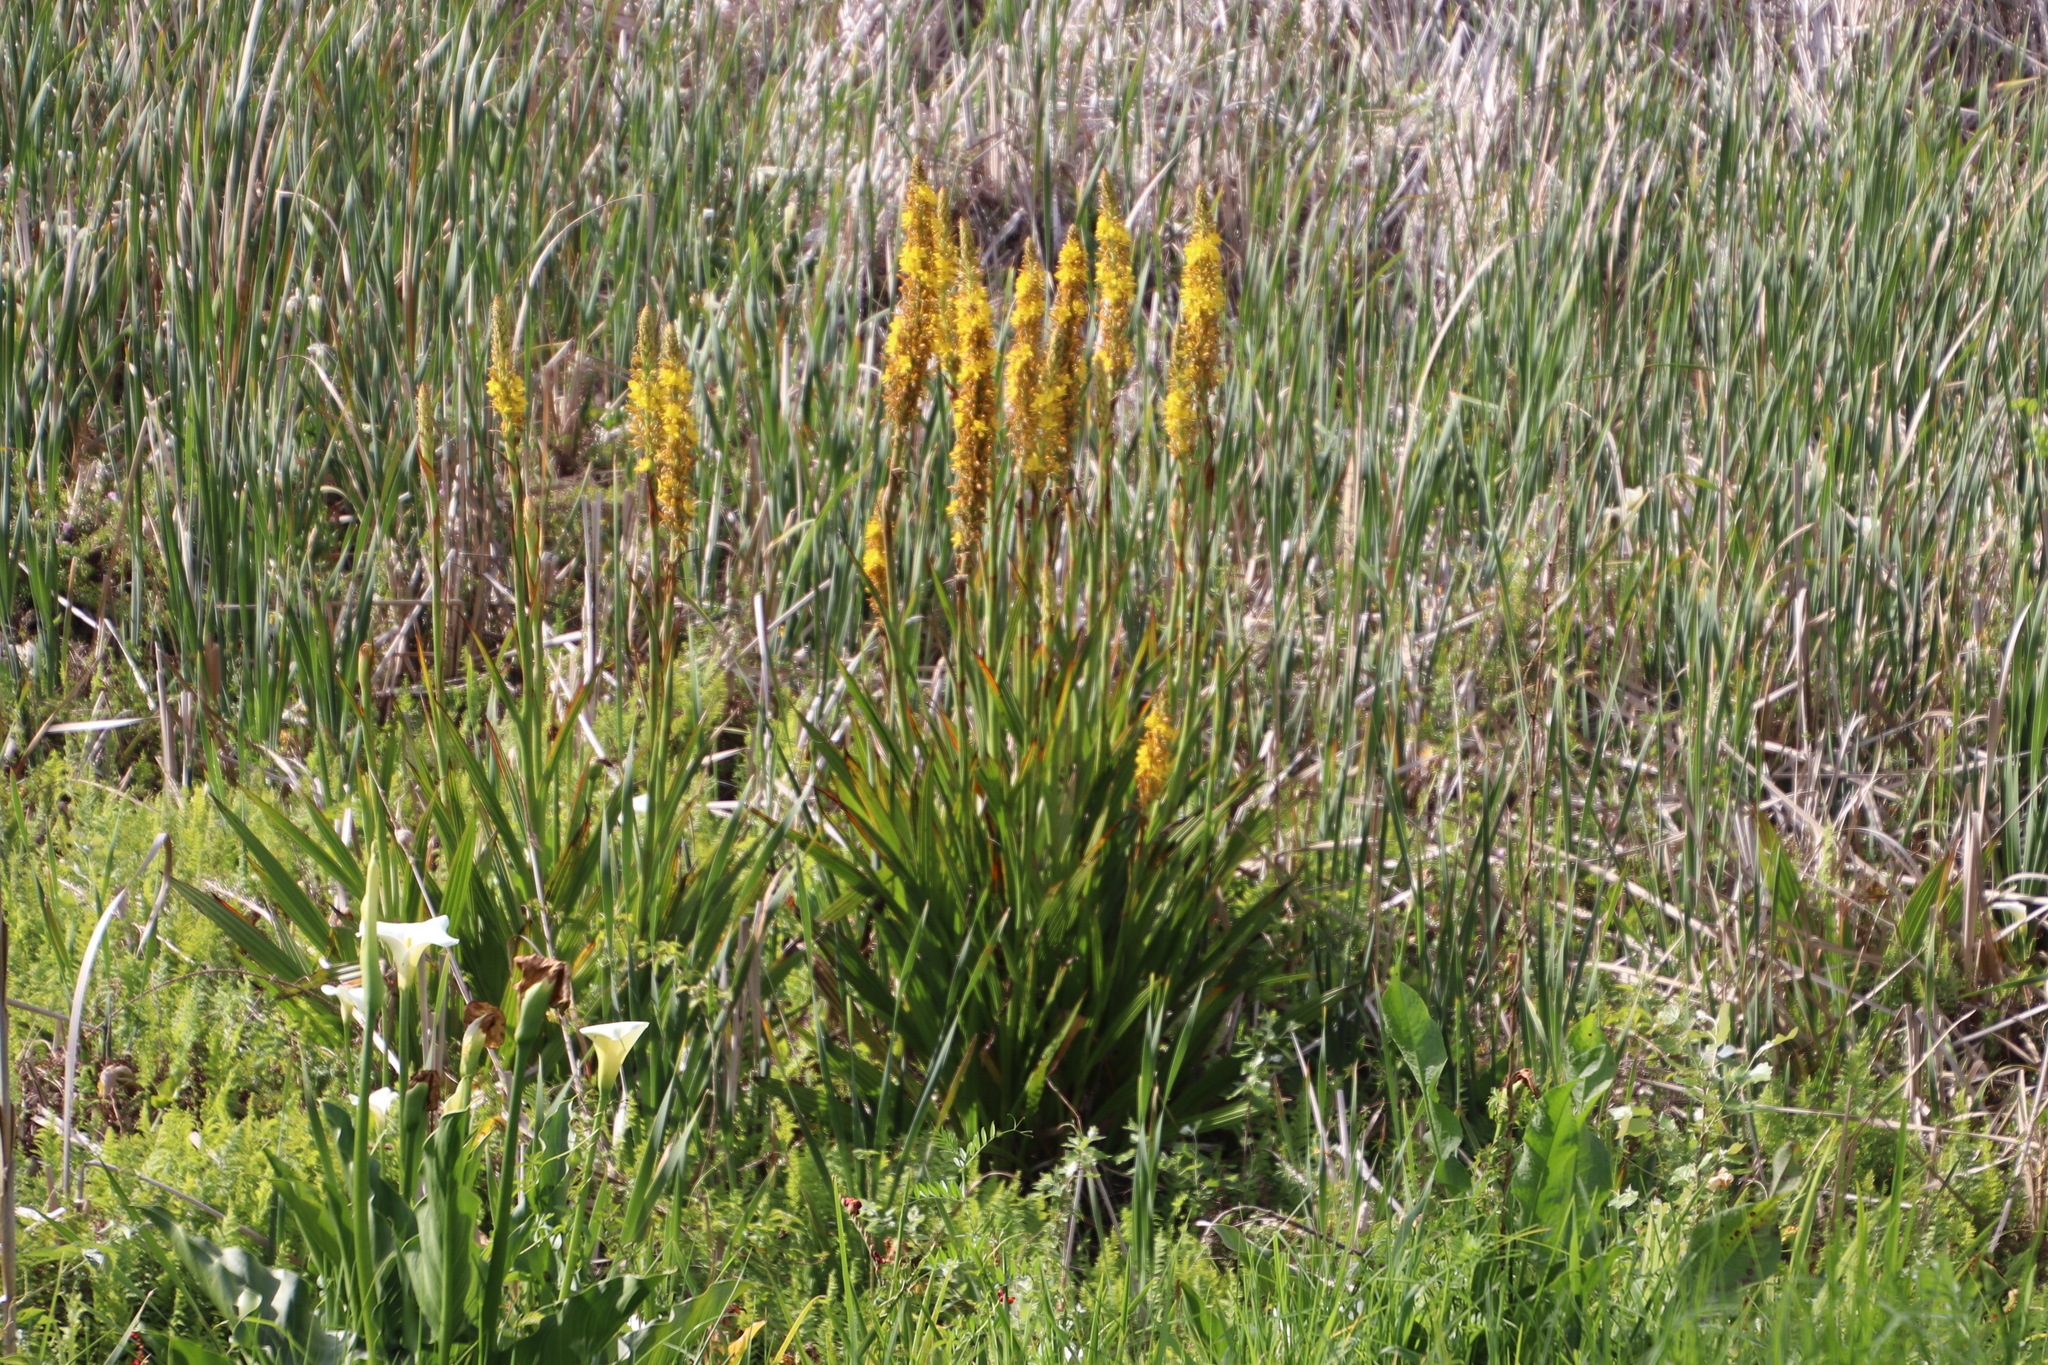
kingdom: Plantae
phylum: Tracheophyta
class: Liliopsida
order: Commelinales
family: Haemodoraceae
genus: Wachendorfia
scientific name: Wachendorfia thyrsiflora
